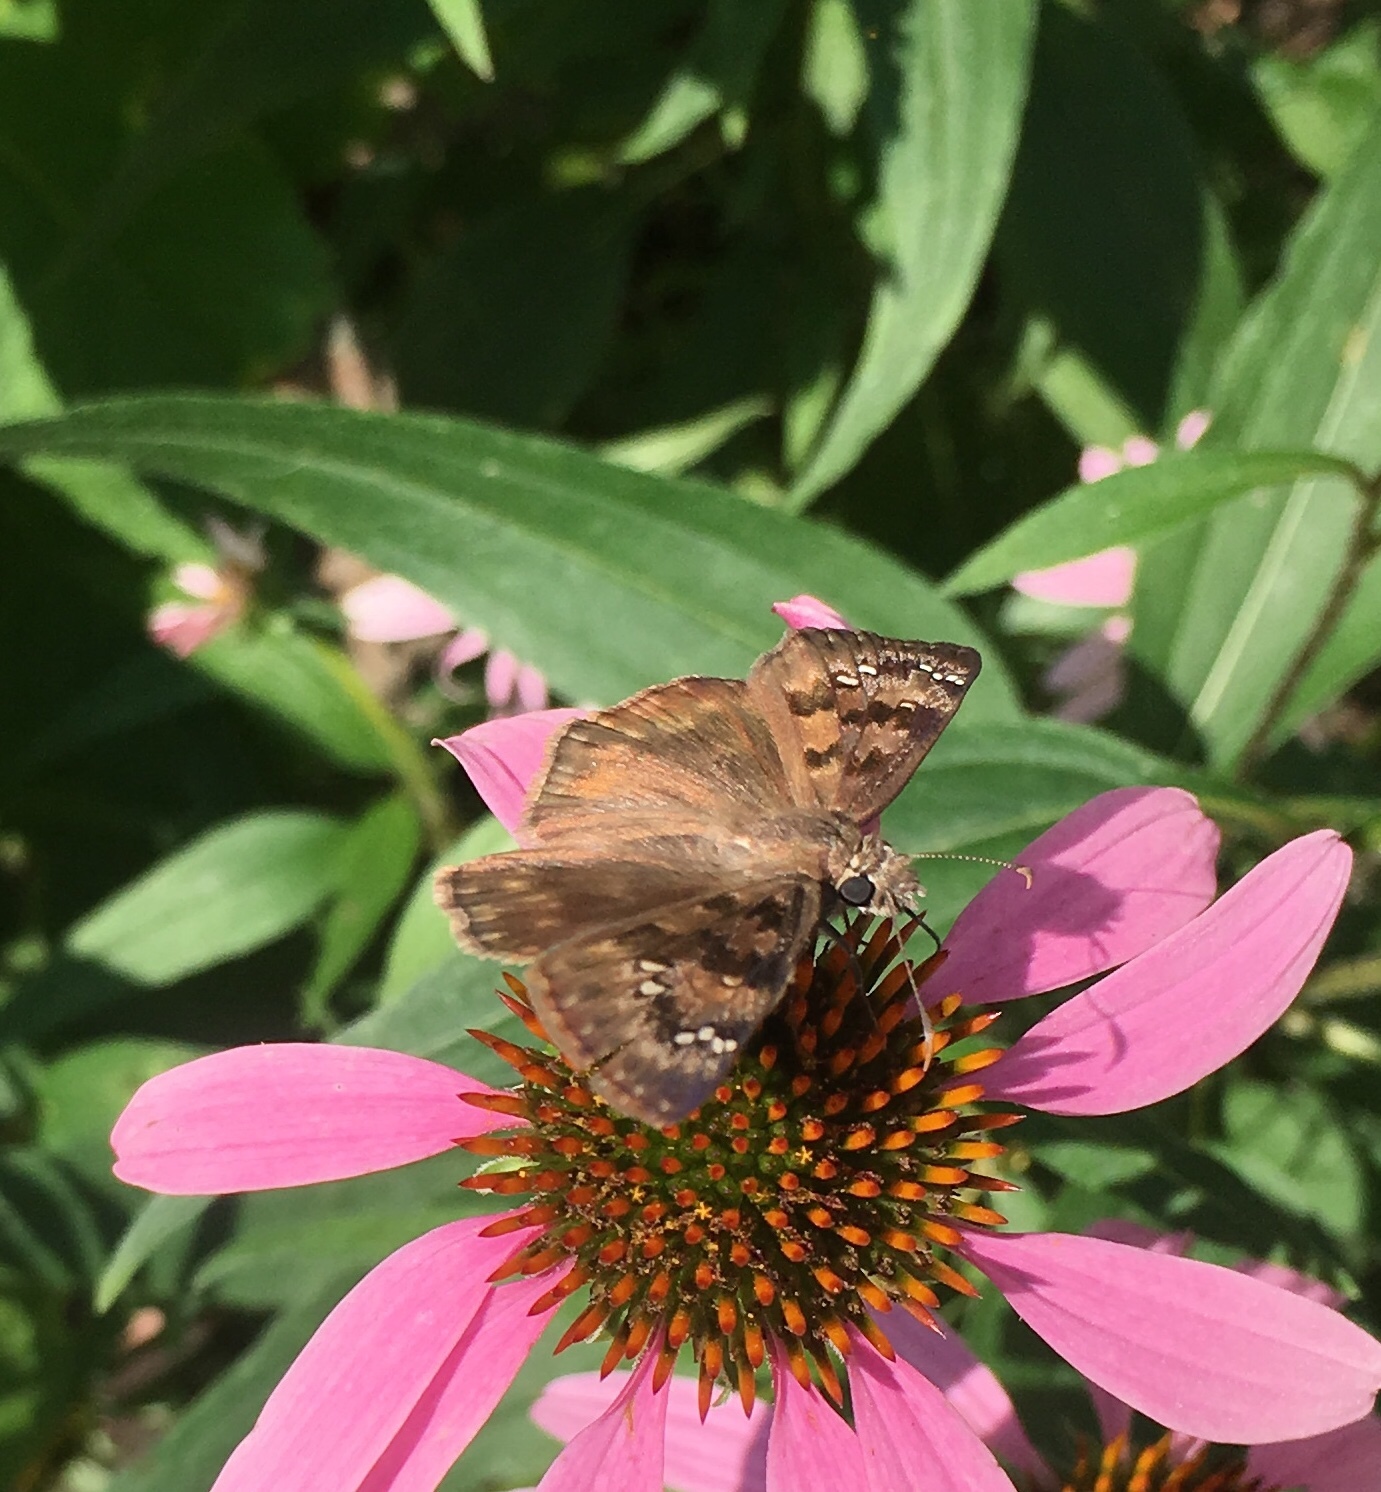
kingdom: Animalia
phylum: Arthropoda
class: Insecta
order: Lepidoptera
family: Hesperiidae
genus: Erynnis
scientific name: Erynnis horatius
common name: Horace's duskywing
